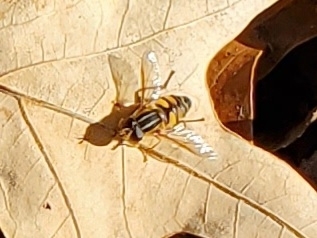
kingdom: Animalia
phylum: Arthropoda
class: Insecta
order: Diptera
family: Syrphidae
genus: Helophilus
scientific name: Helophilus fasciatus
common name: Narrow-headed marsh fly
